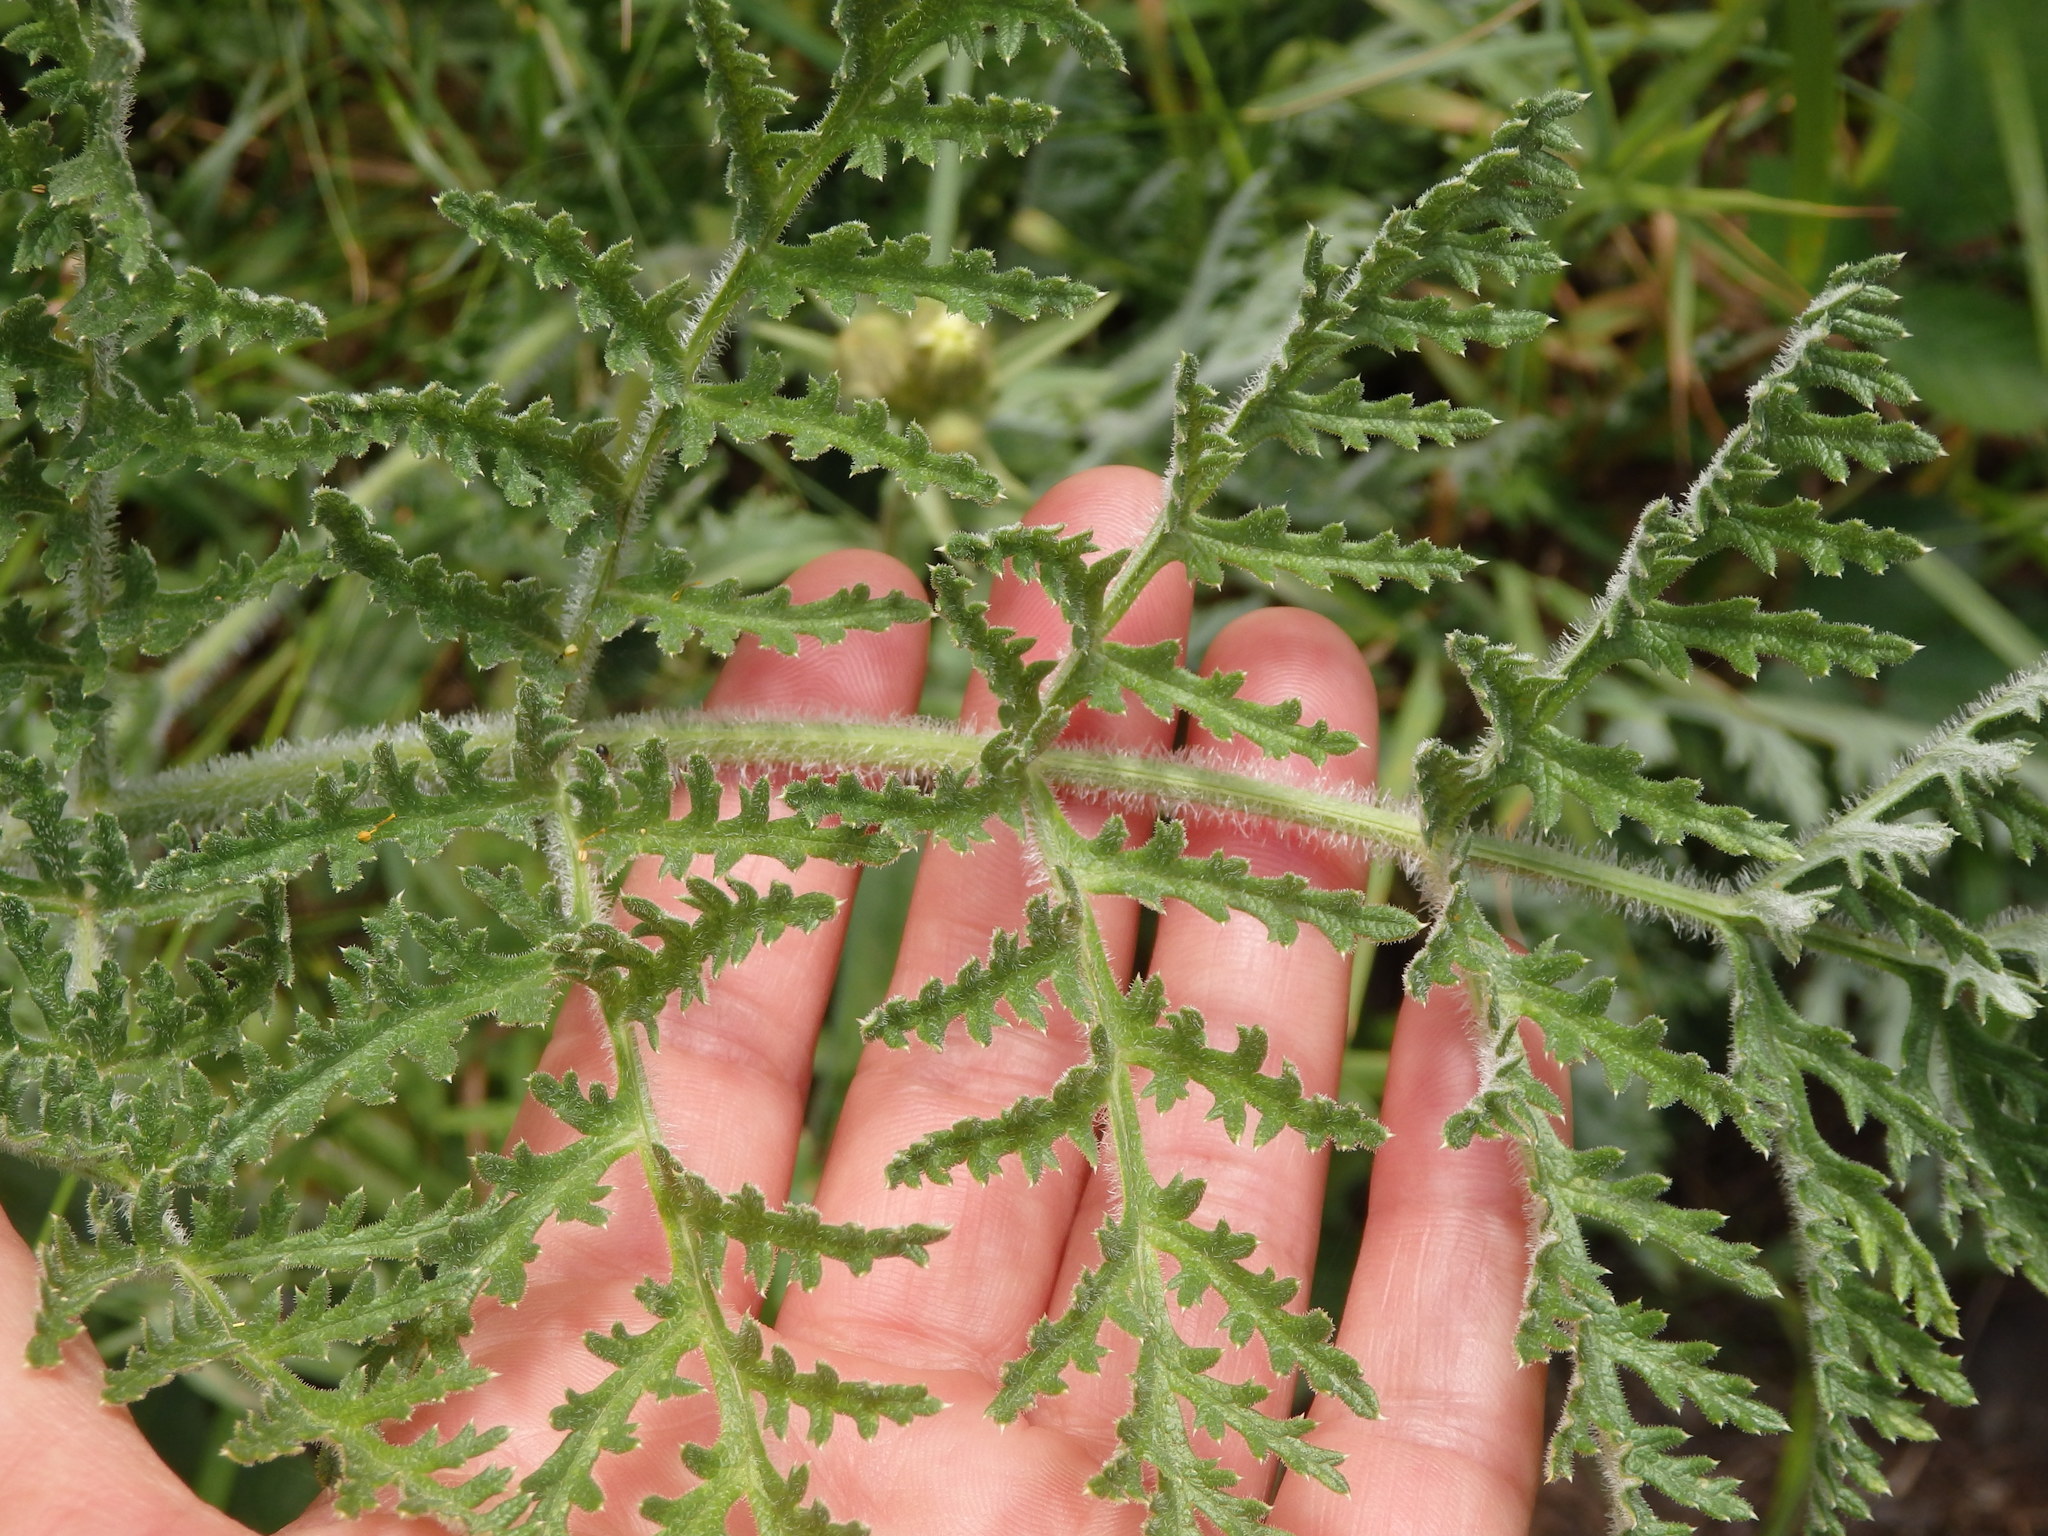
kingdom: Plantae
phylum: Tracheophyta
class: Magnoliopsida
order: Apiales
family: Apiaceae
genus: Thapsia
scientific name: Thapsia villosa
